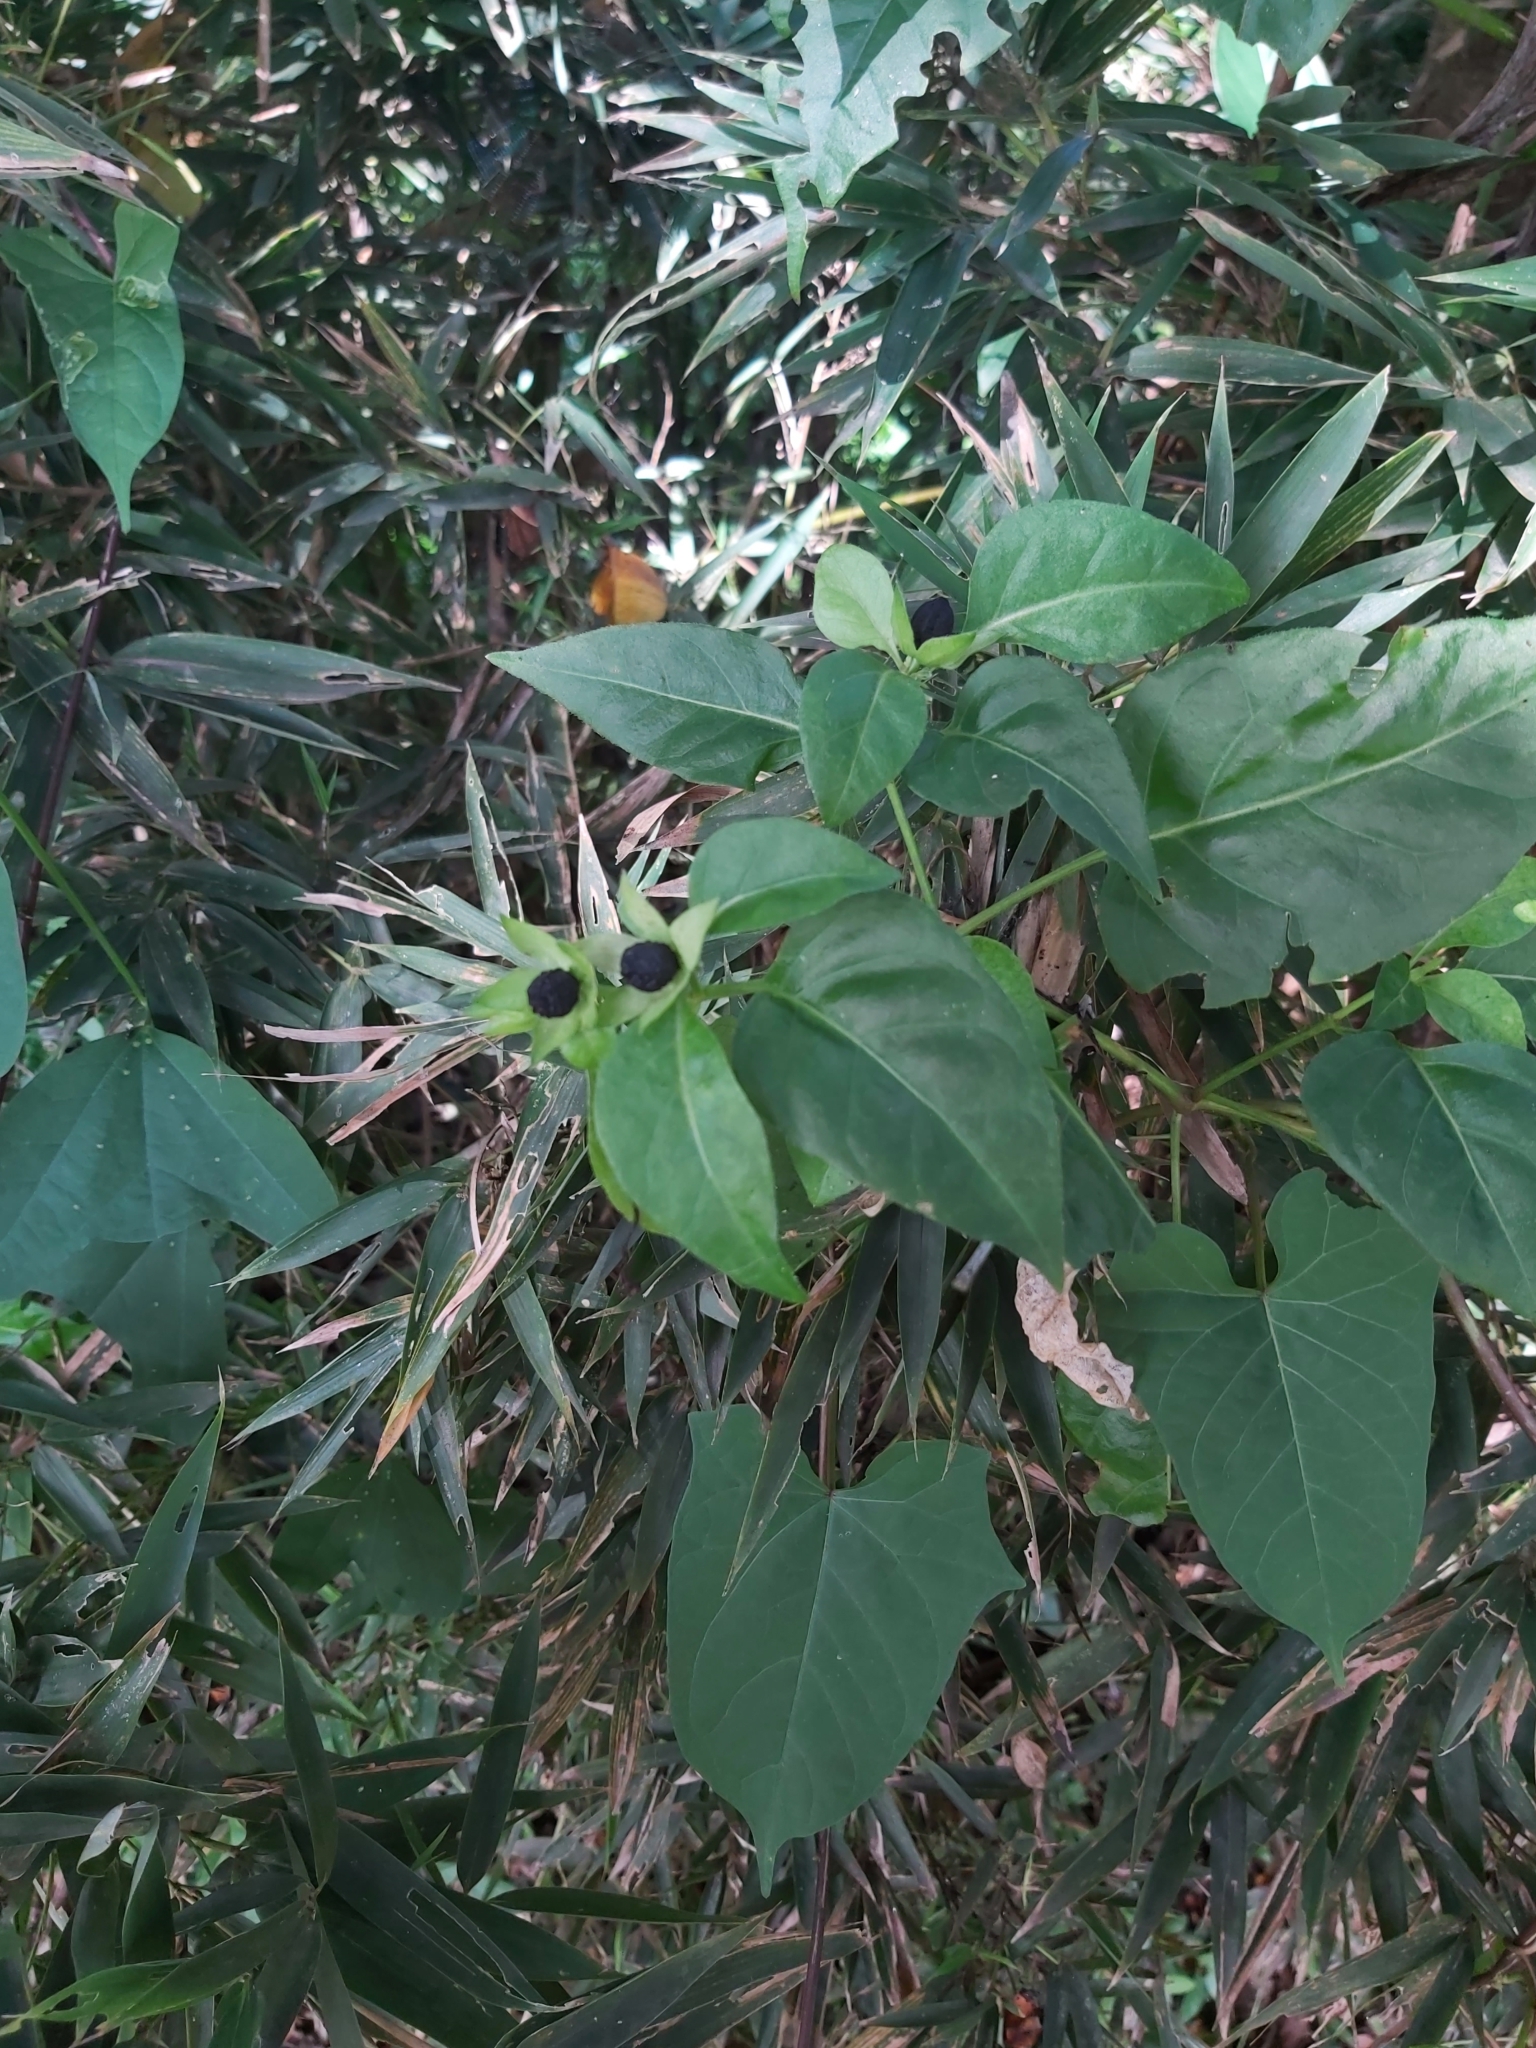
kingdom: Plantae
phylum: Tracheophyta
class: Magnoliopsida
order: Caryophyllales
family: Nyctaginaceae
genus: Mirabilis
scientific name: Mirabilis jalapa
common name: Marvel-of-peru
